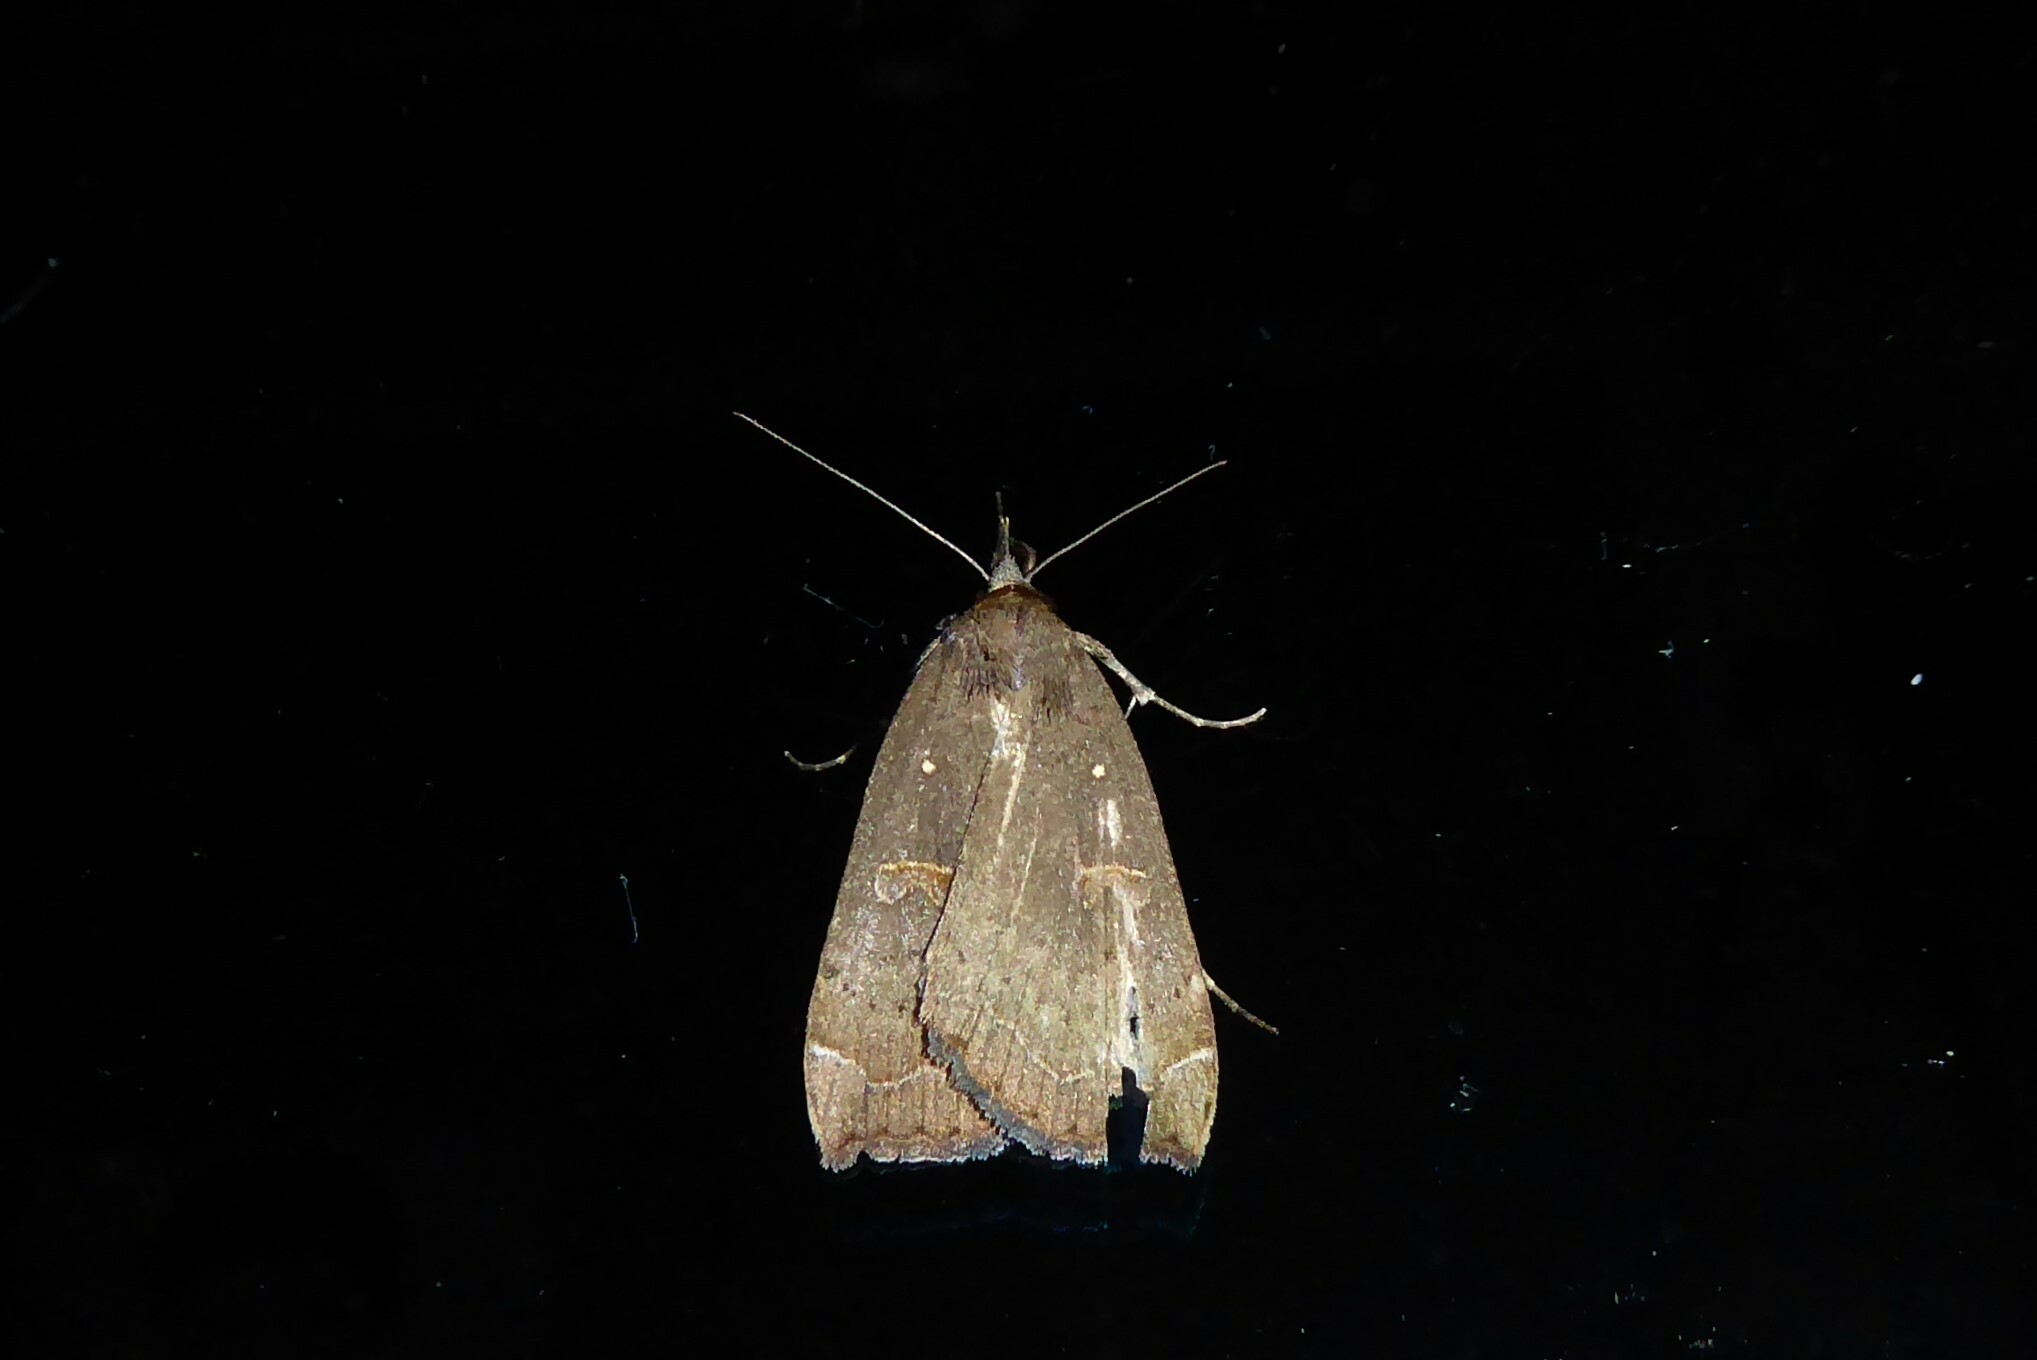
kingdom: Animalia
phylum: Arthropoda
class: Insecta
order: Lepidoptera
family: Erebidae
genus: Rhapsa
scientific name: Rhapsa scotosialis
